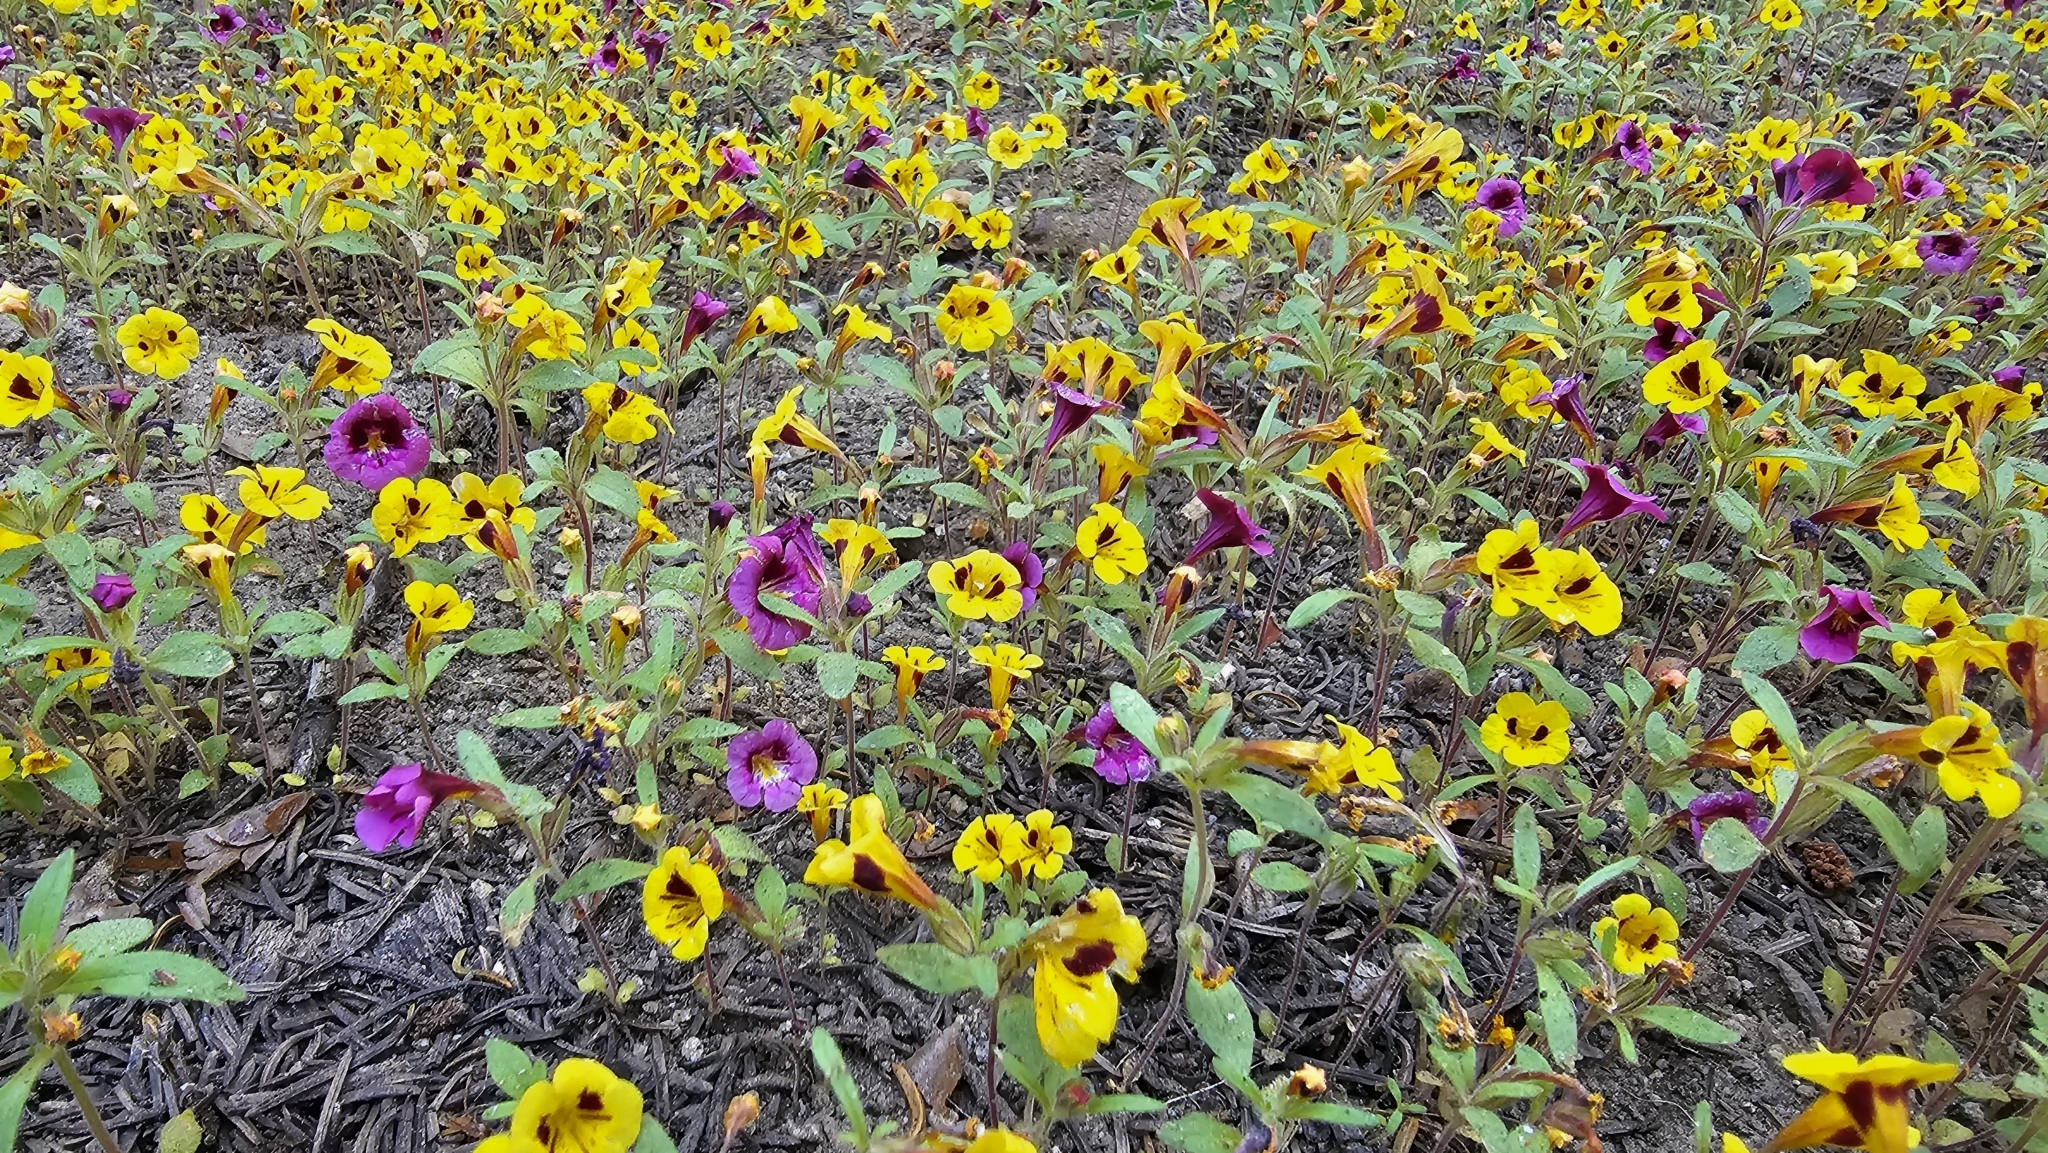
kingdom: Plantae
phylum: Tracheophyta
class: Magnoliopsida
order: Lamiales
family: Phrymaceae
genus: Diplacus
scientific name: Diplacus bicolor
